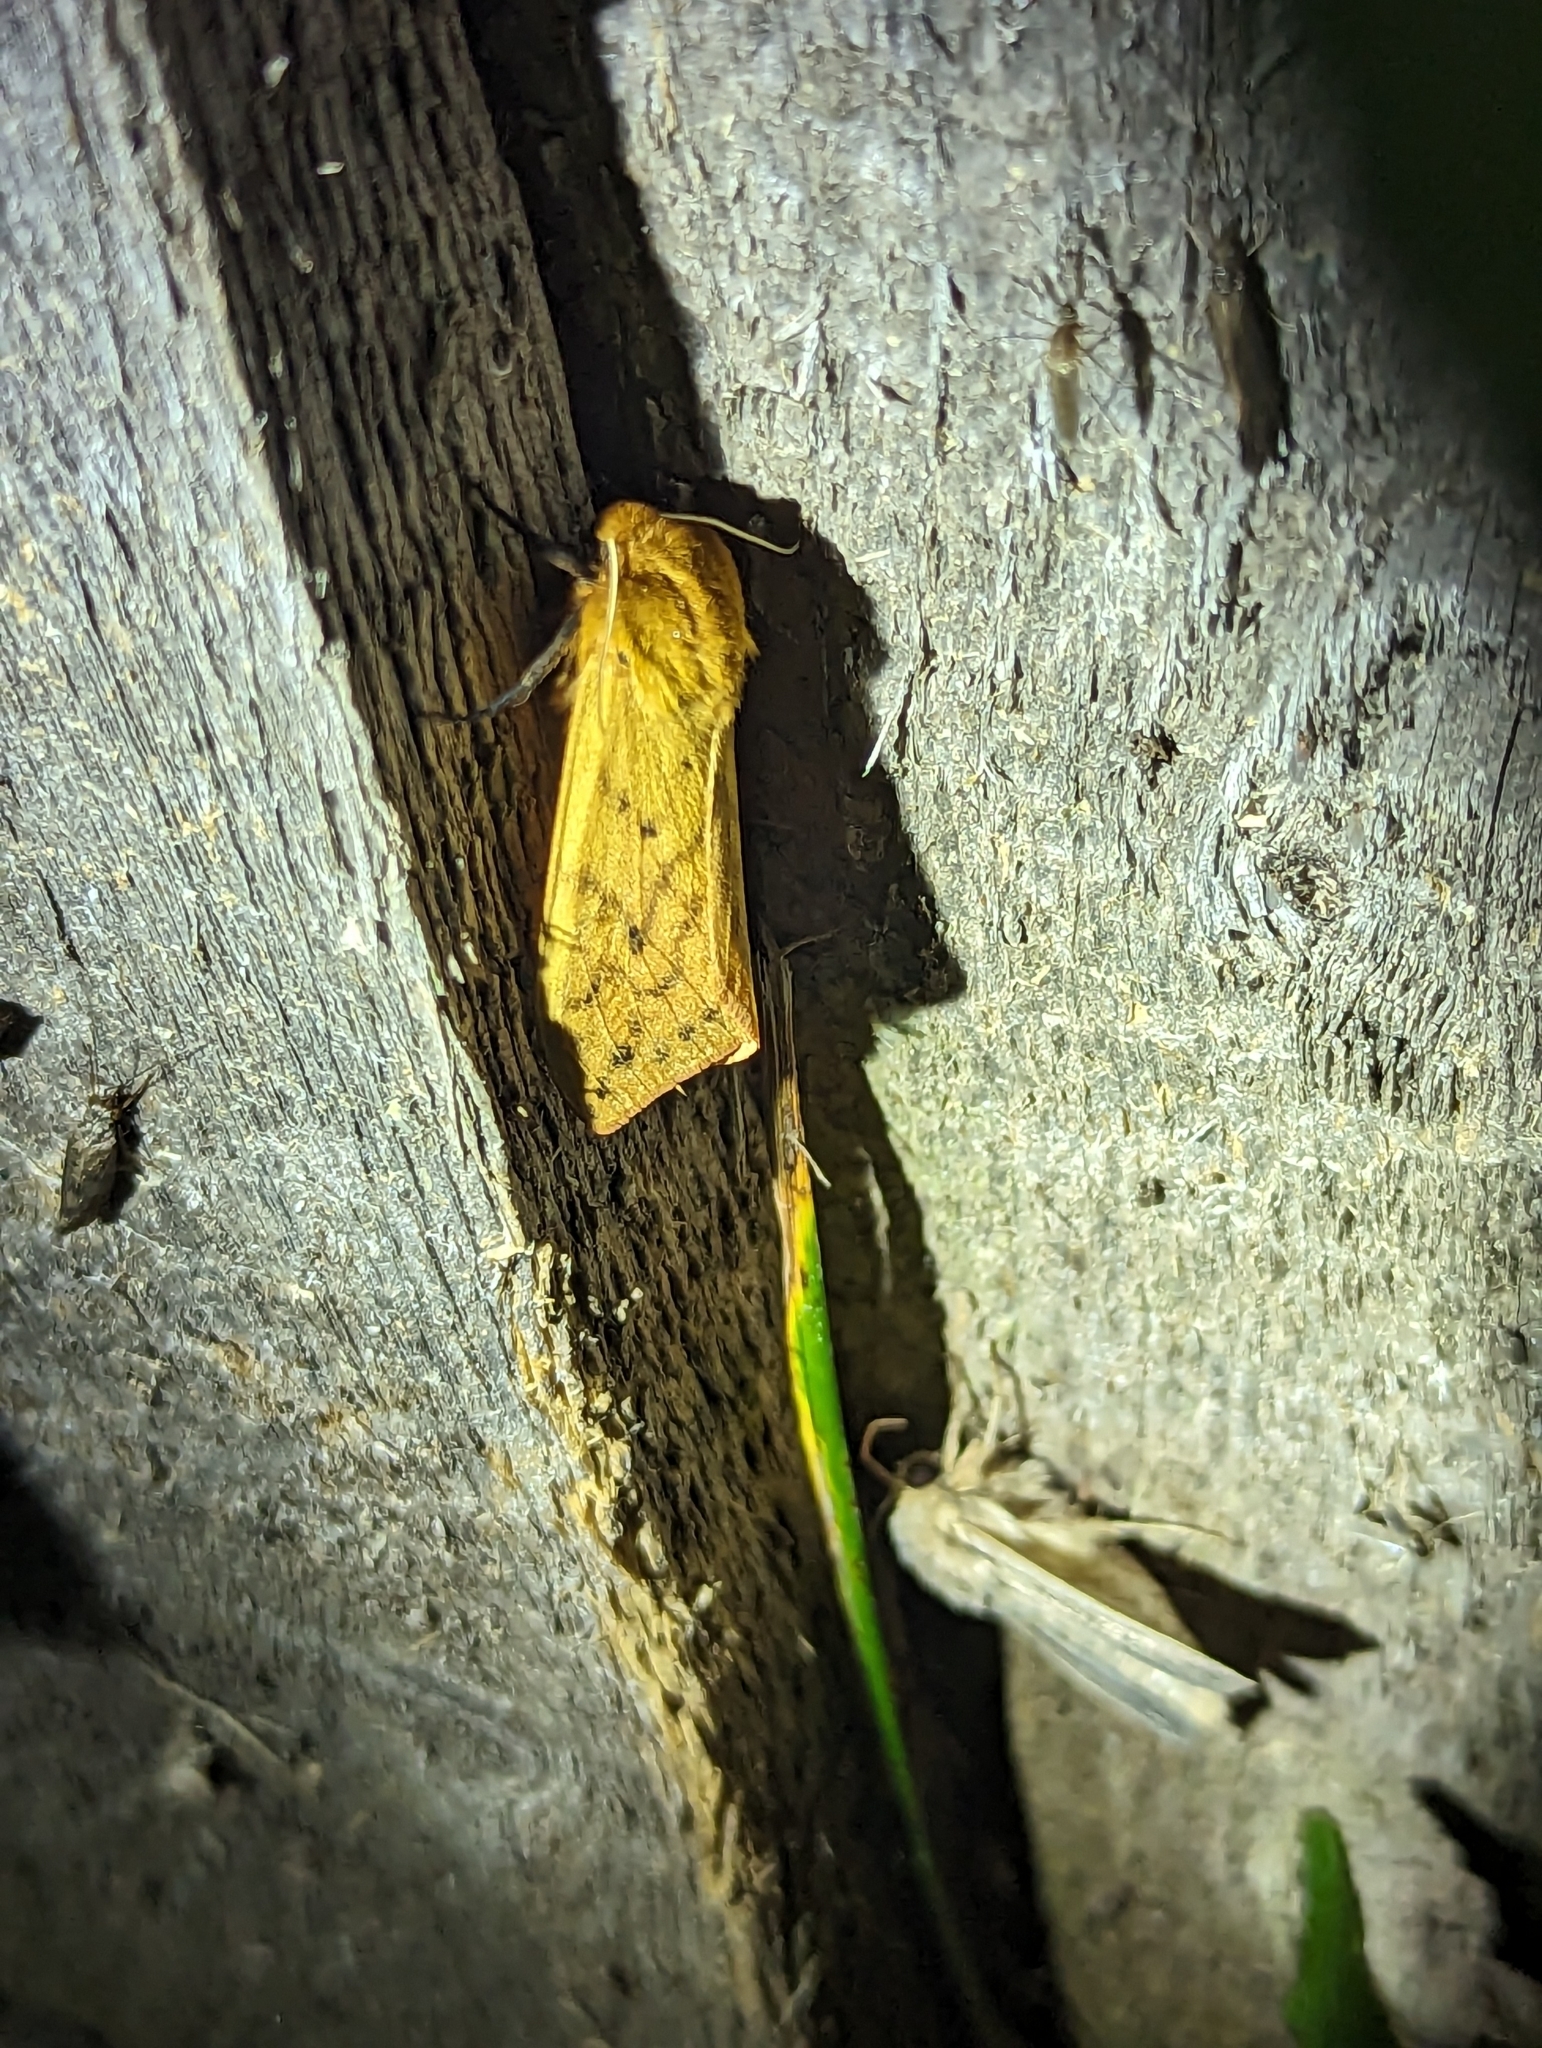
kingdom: Animalia
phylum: Arthropoda
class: Insecta
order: Lepidoptera
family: Erebidae
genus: Pyrrharctia
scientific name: Pyrrharctia isabella
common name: Isabella tiger moth
